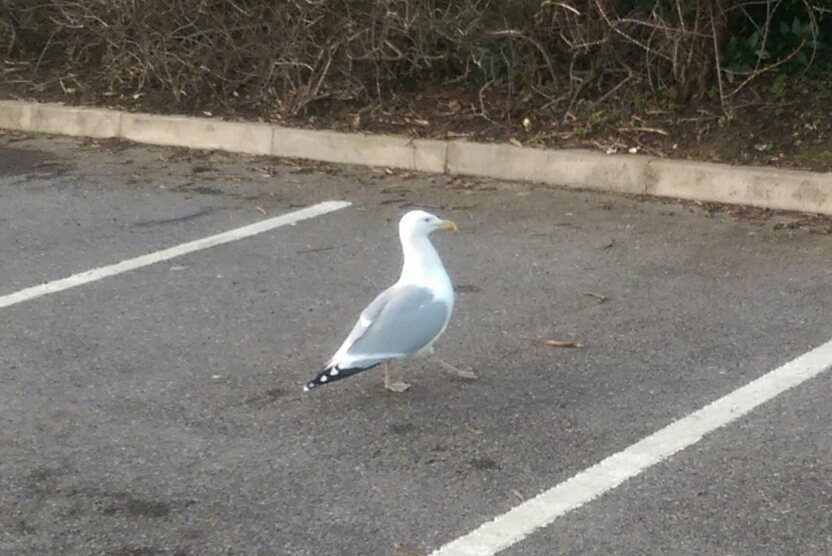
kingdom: Animalia
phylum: Chordata
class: Aves
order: Charadriiformes
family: Laridae
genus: Larus
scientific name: Larus argentatus
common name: Herring gull
